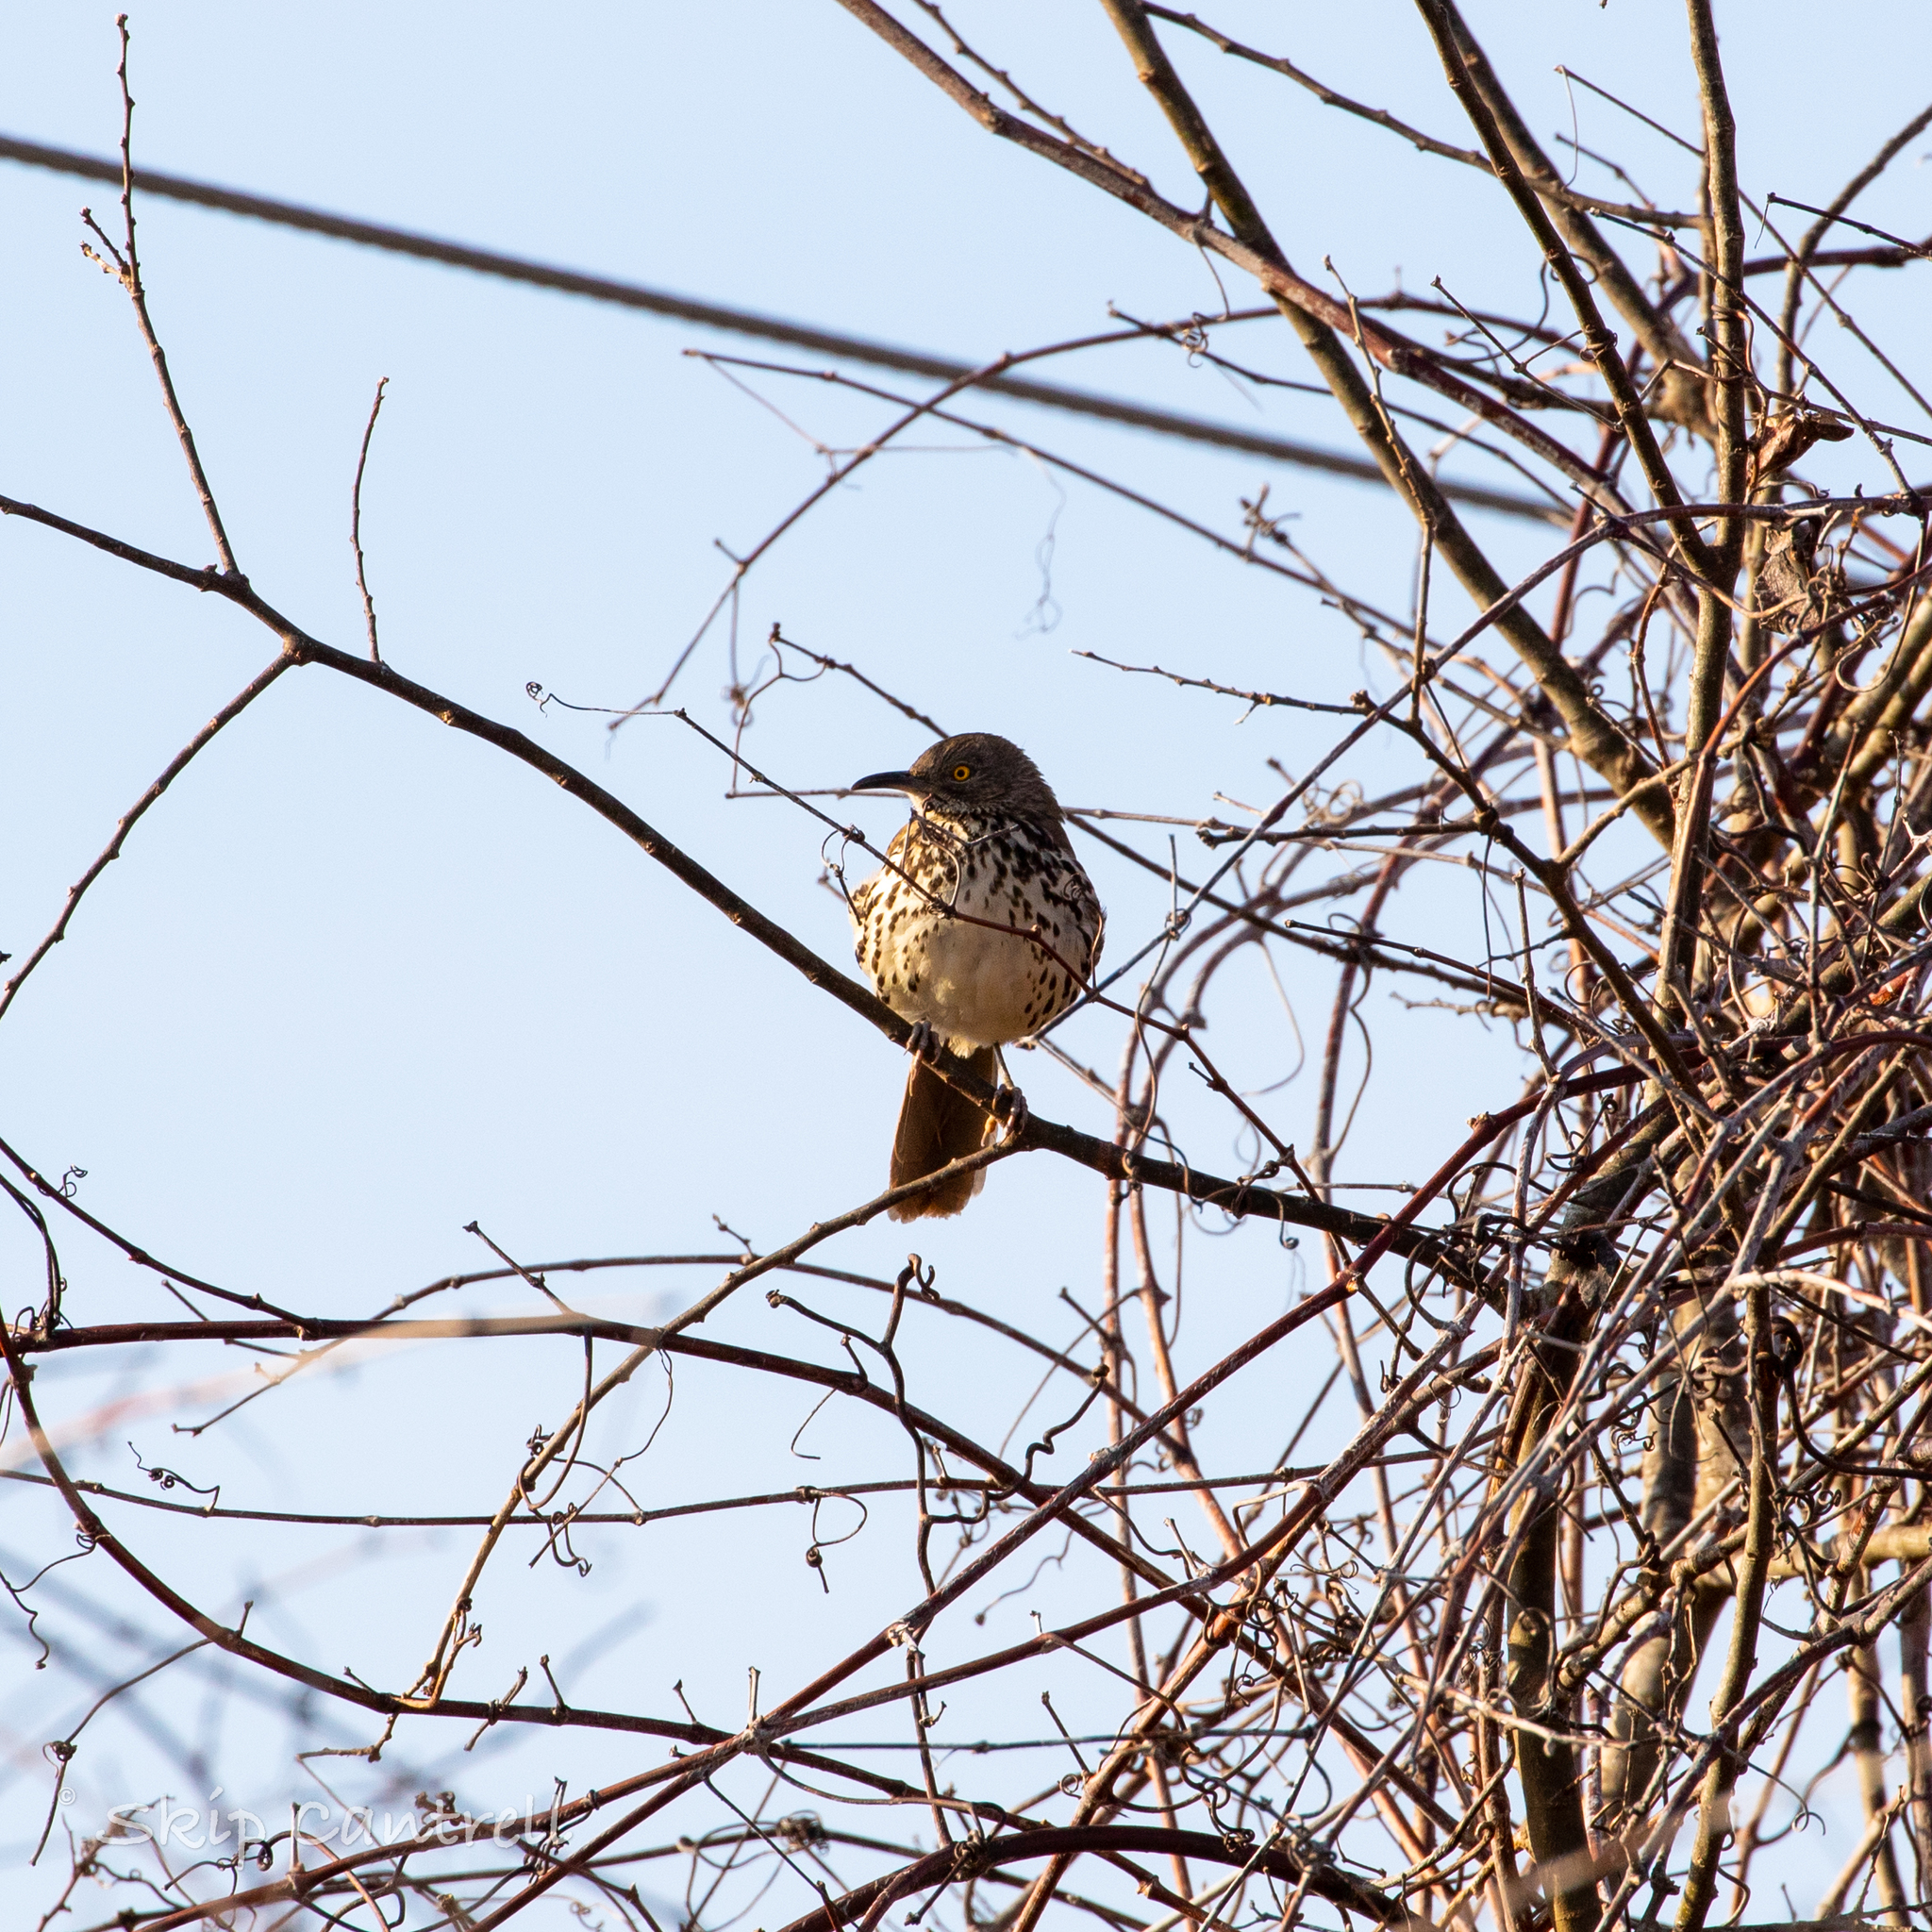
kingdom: Animalia
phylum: Chordata
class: Aves
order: Passeriformes
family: Mimidae
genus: Toxostoma
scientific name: Toxostoma rufum
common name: Brown thrasher
